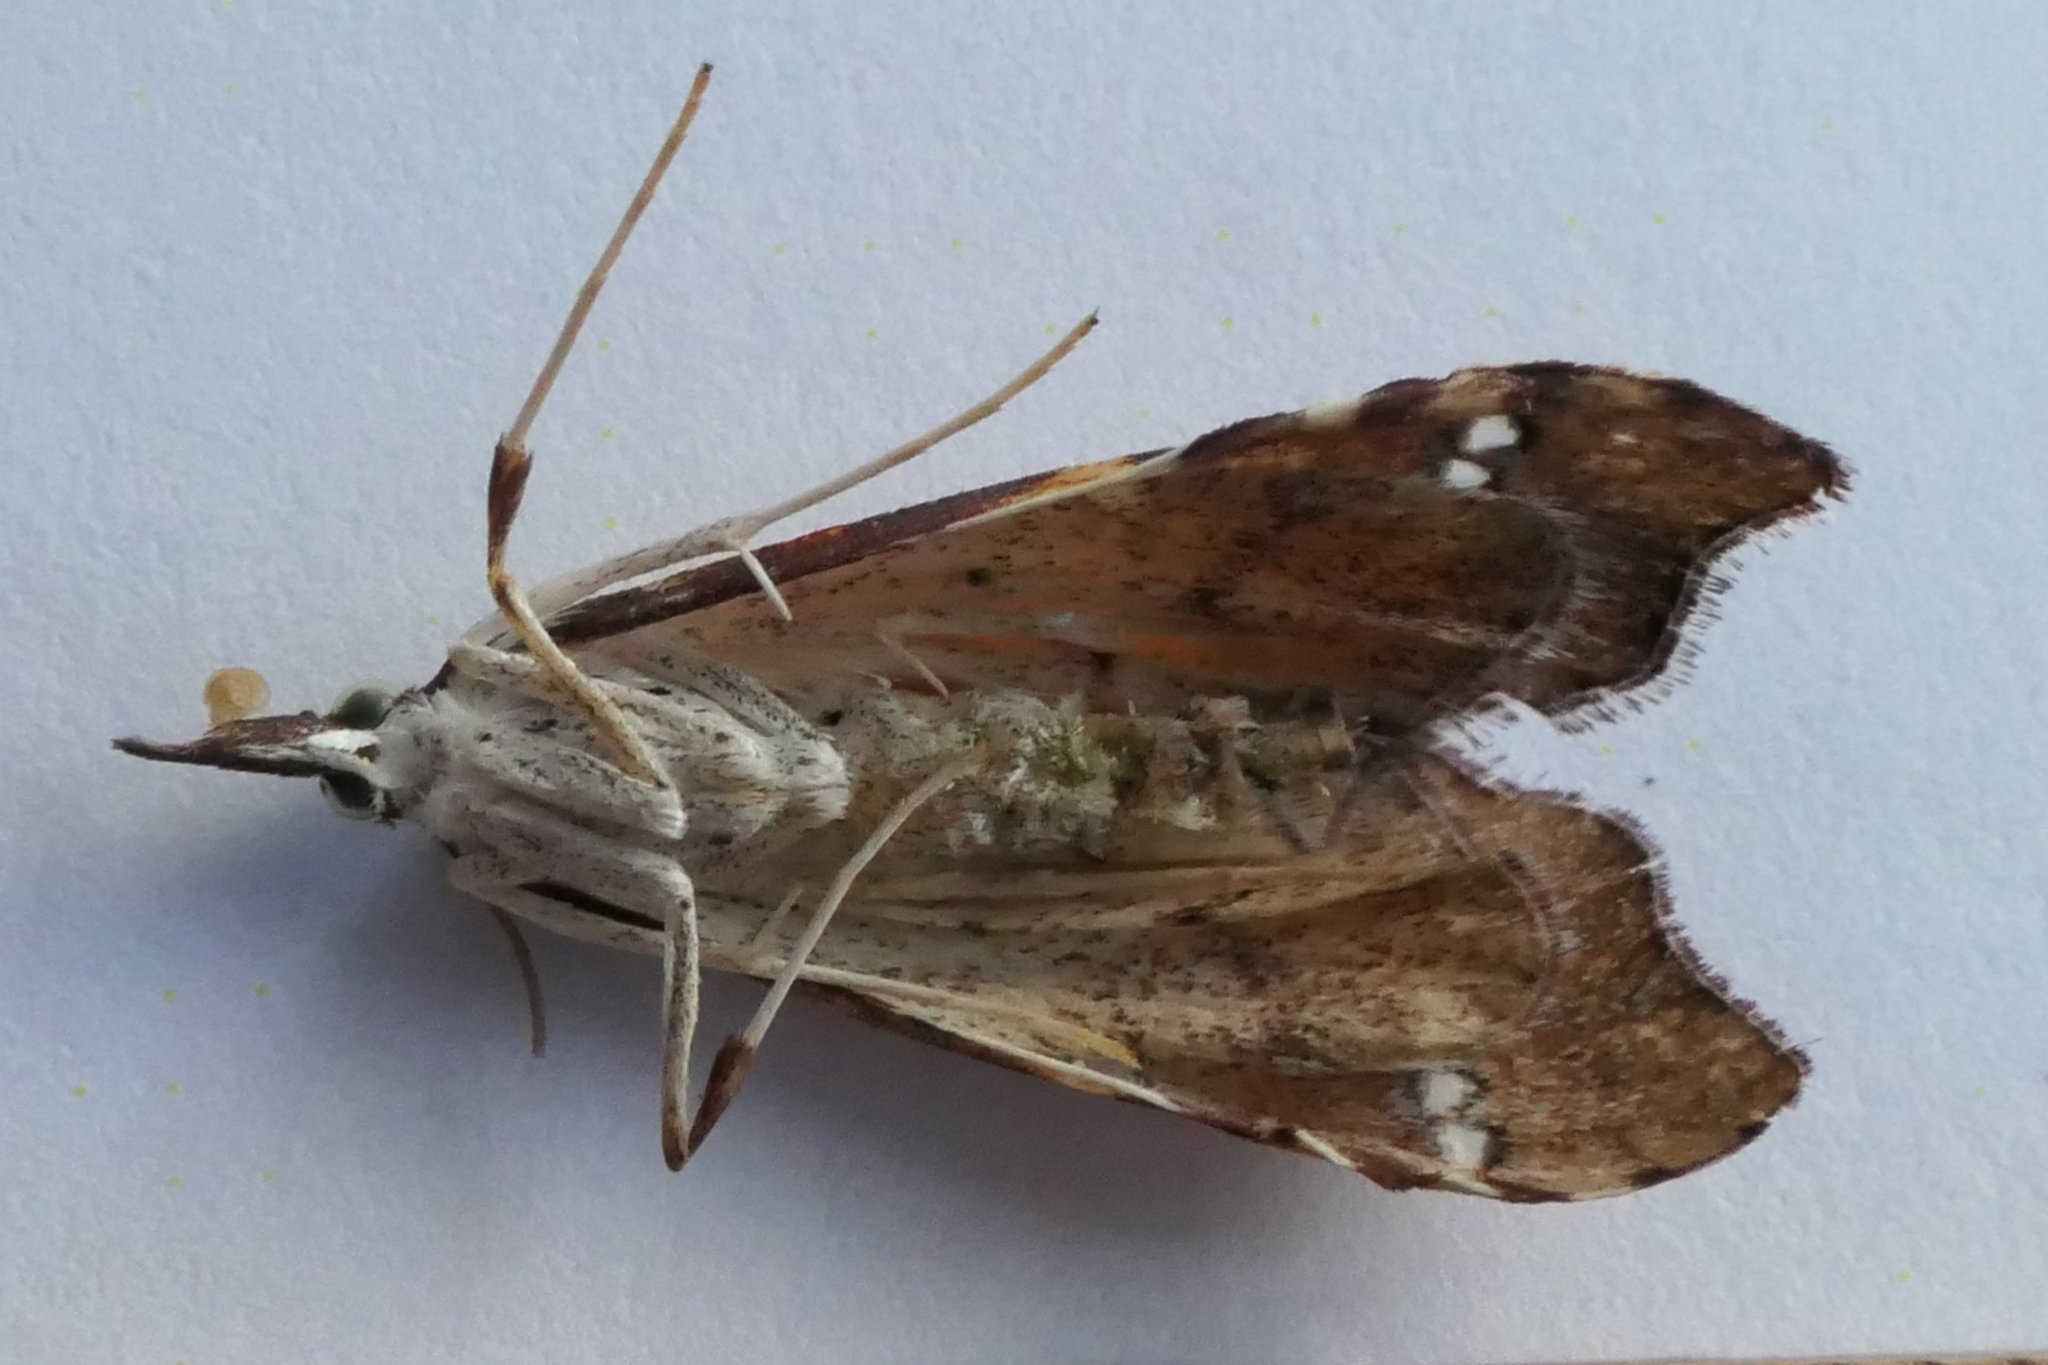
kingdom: Animalia
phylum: Arthropoda
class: Insecta
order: Lepidoptera
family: Crambidae
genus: Deana
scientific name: Deana hybreasalis
